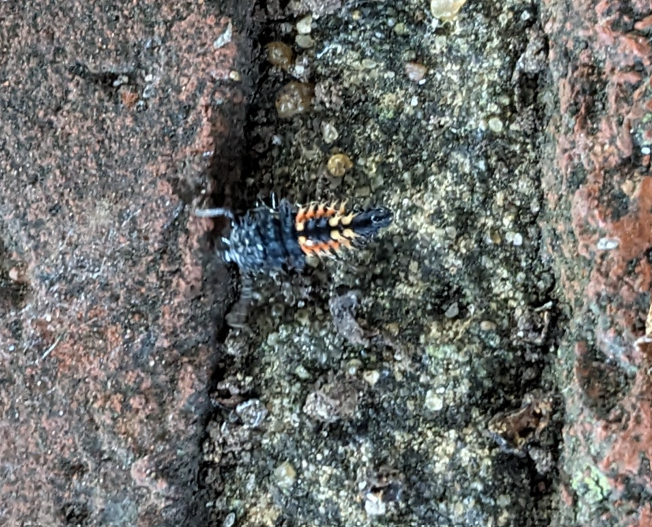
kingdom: Animalia
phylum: Arthropoda
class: Insecta
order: Coleoptera
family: Coccinellidae
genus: Harmonia
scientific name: Harmonia axyridis
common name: Harlequin ladybird
